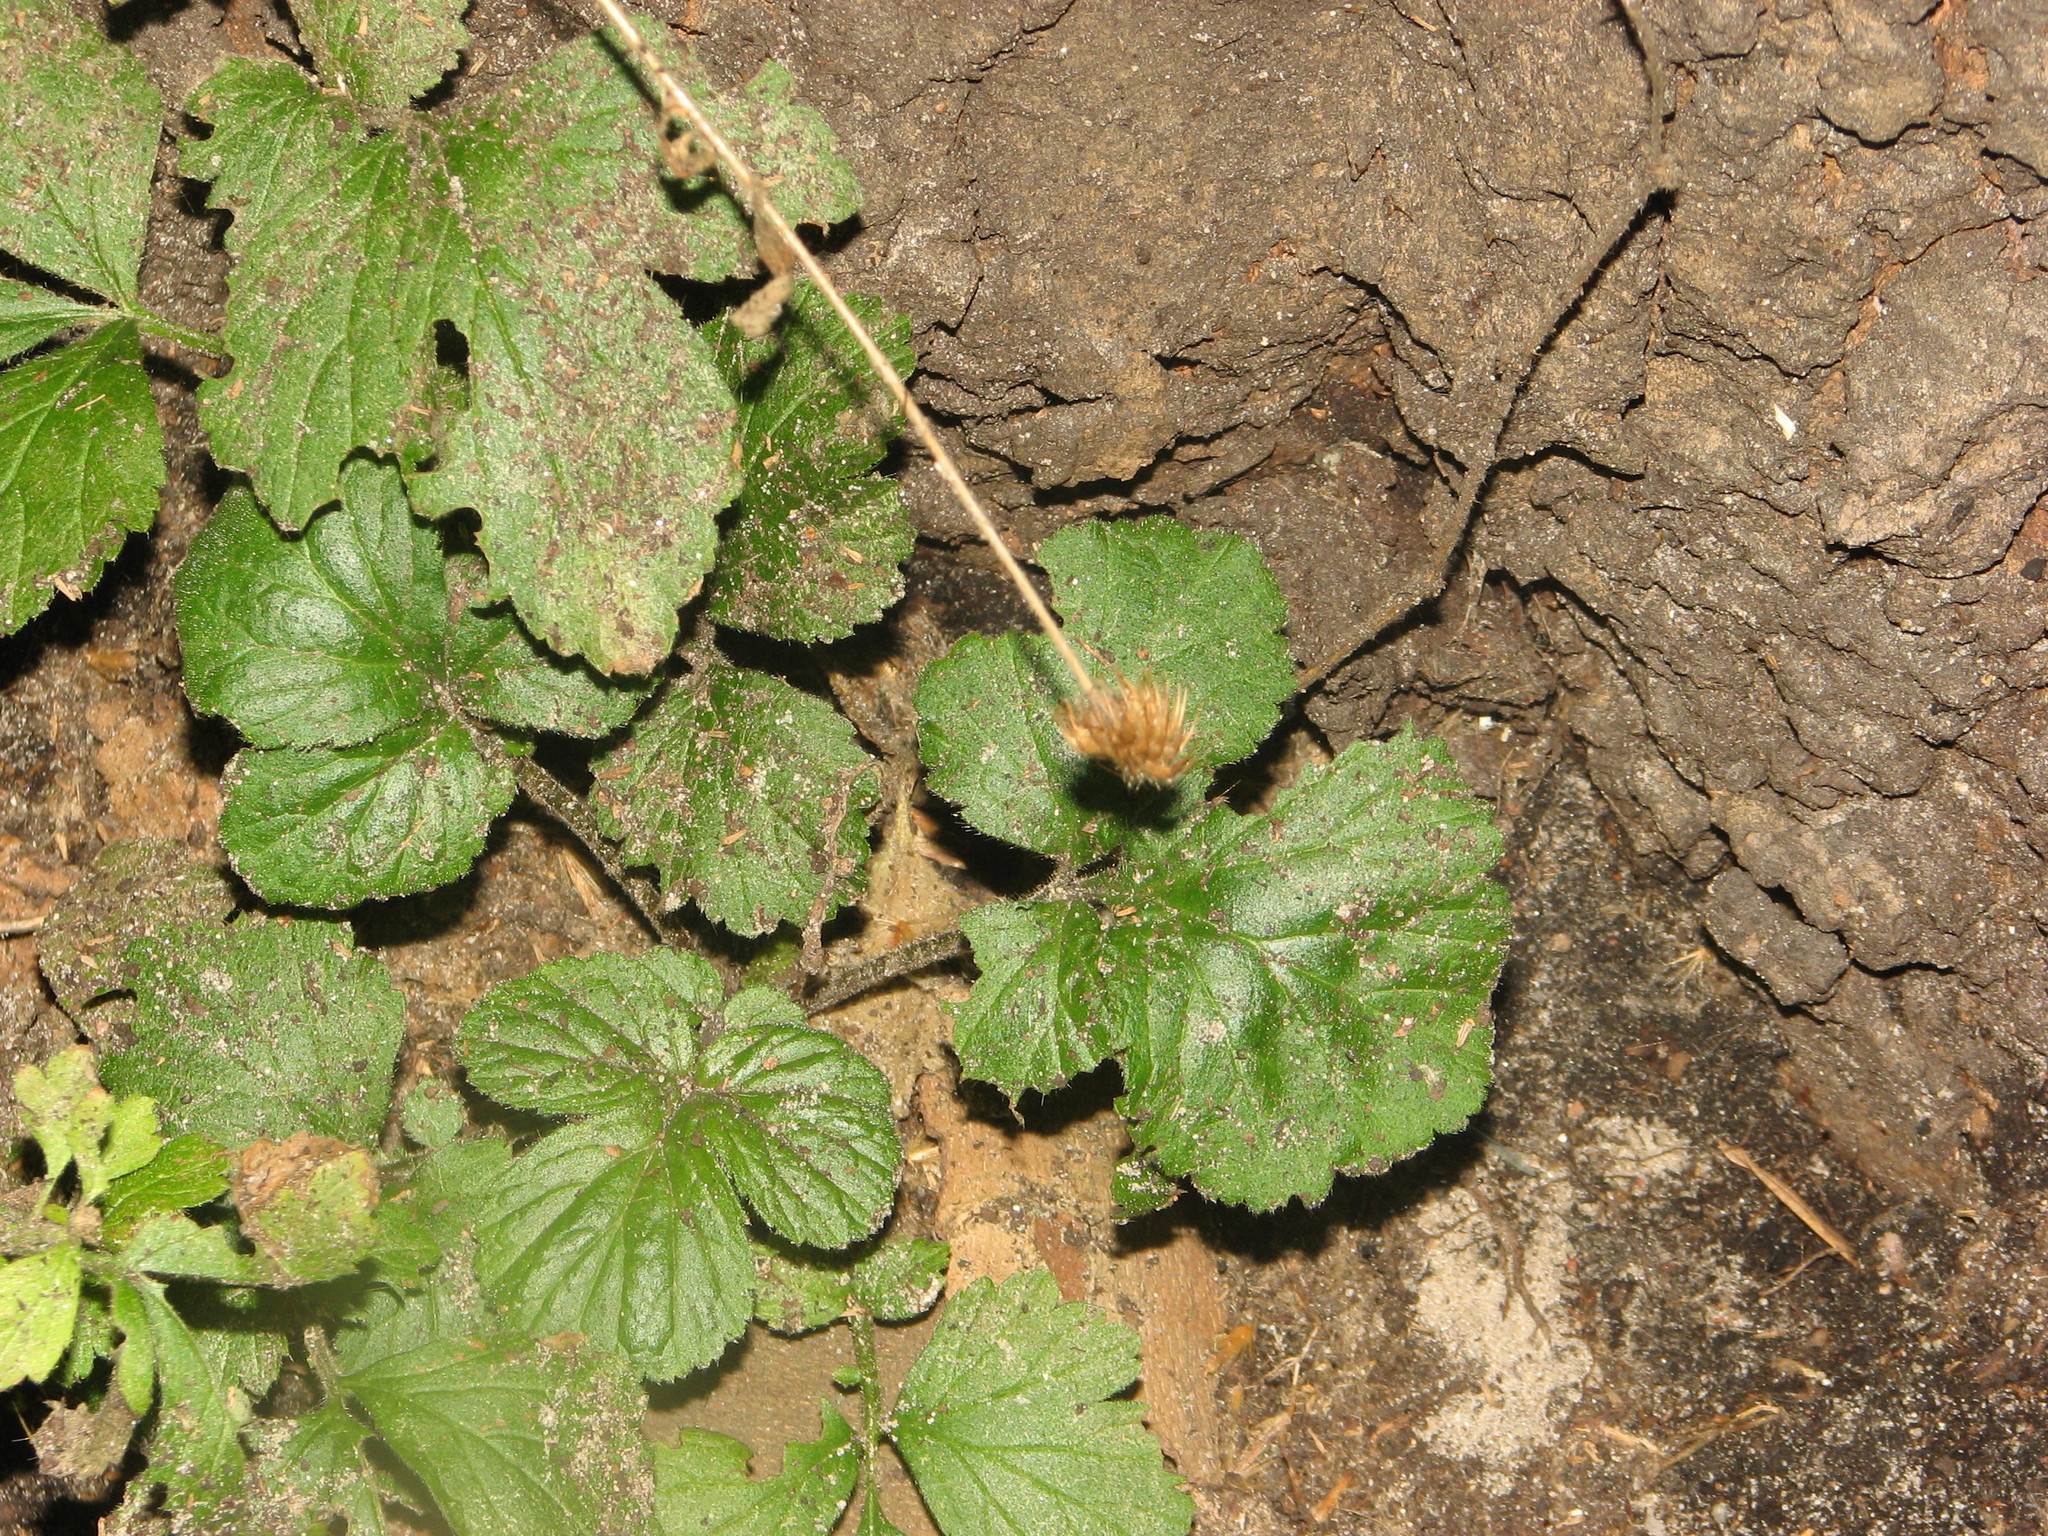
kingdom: Plantae
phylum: Tracheophyta
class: Magnoliopsida
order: Rosales
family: Rosaceae
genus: Geum
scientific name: Geum urbanum
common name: Wood avens
